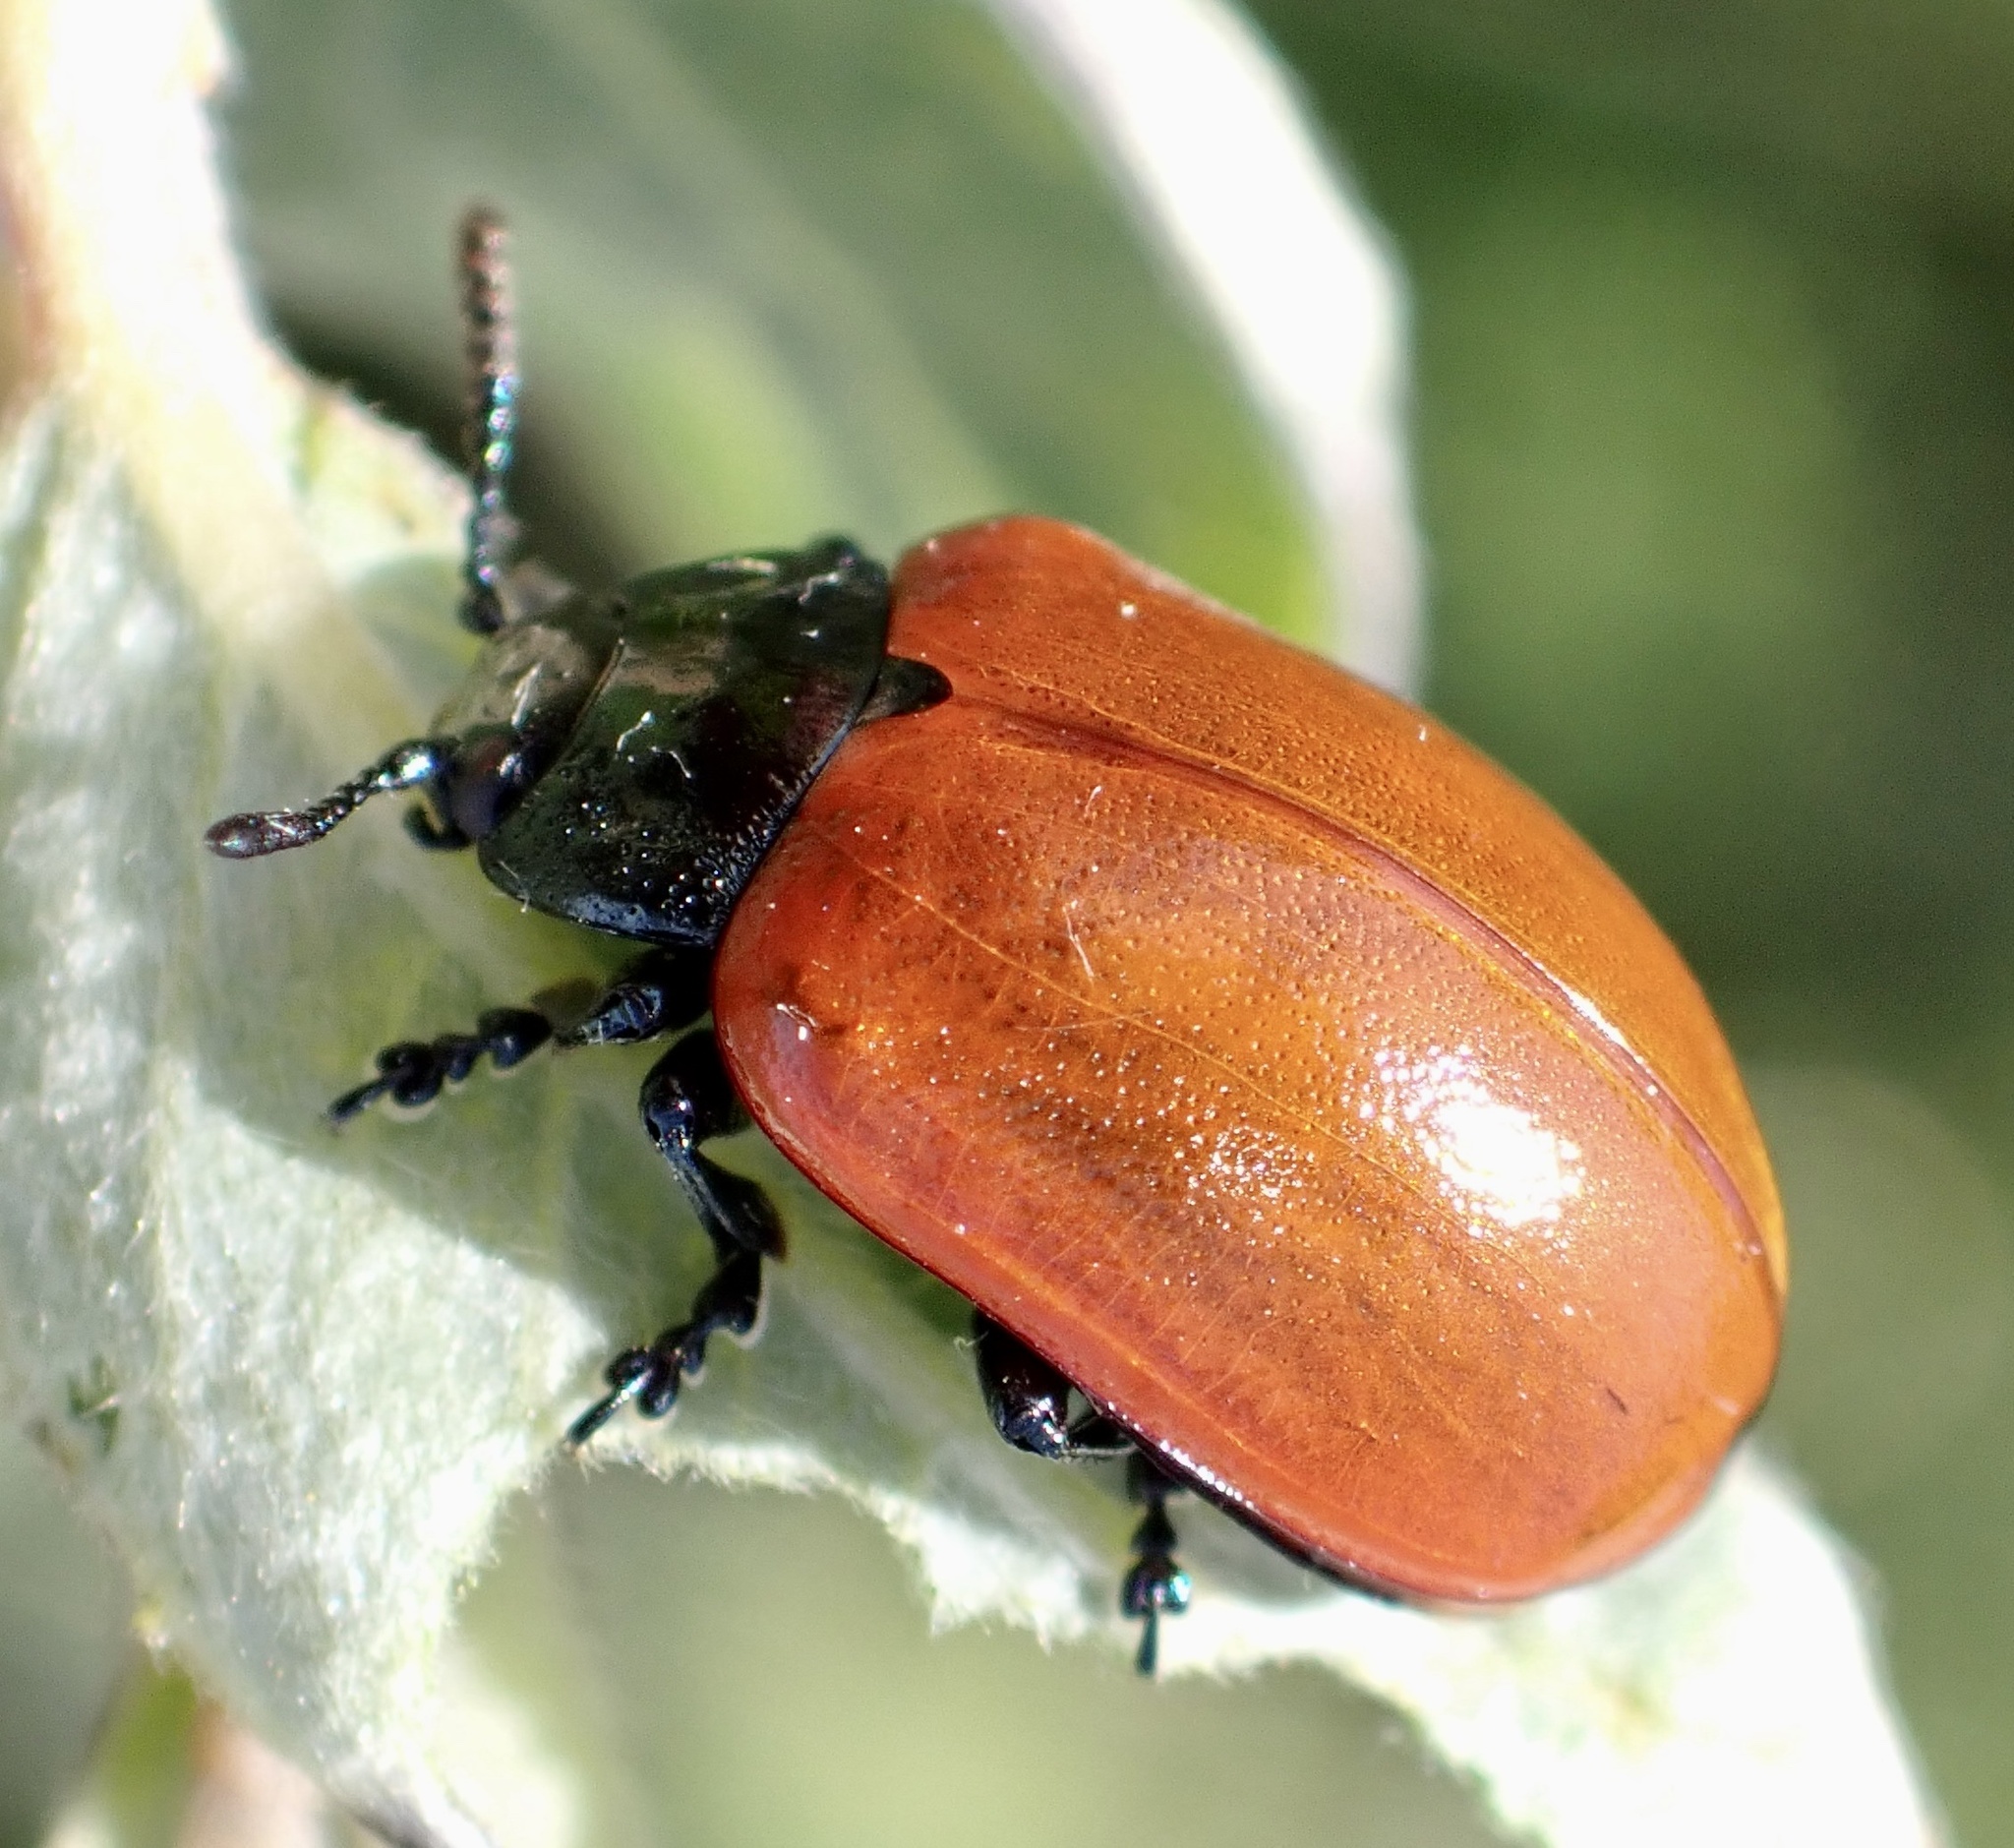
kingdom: Animalia
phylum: Arthropoda
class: Insecta
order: Coleoptera
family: Chrysomelidae
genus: Chrysomela
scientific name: Chrysomela populi
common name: Red poplar leaf beetle
